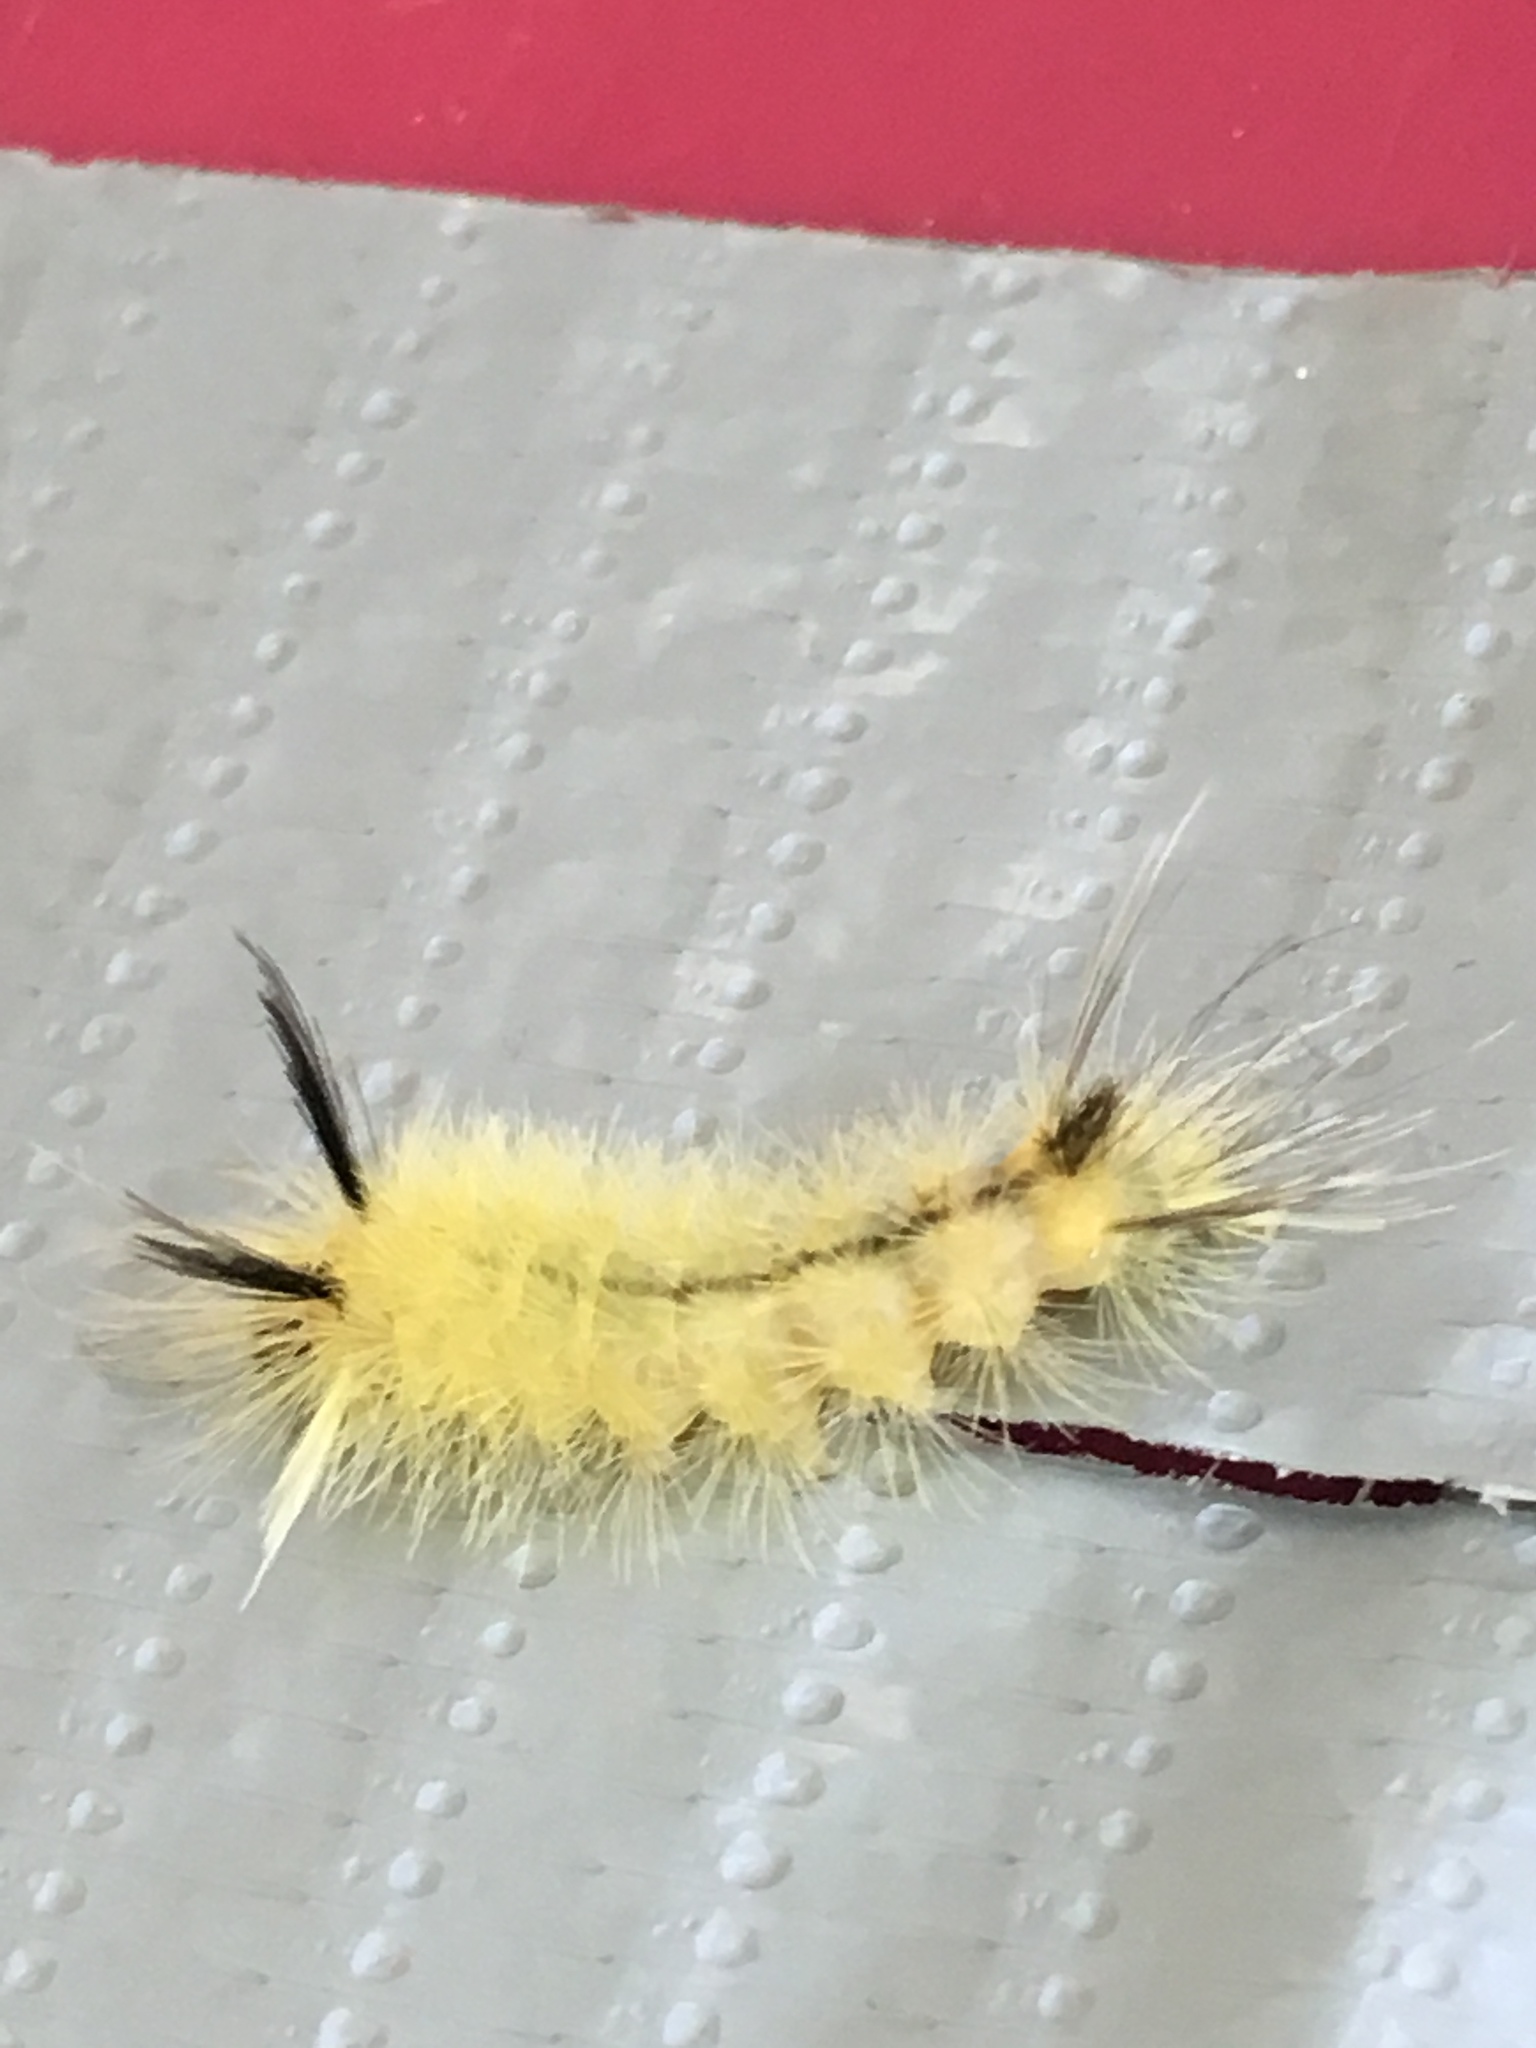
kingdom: Animalia
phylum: Arthropoda
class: Insecta
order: Lepidoptera
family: Erebidae
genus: Halysidota
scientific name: Halysidota tessellaris
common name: Banded tussock moth
